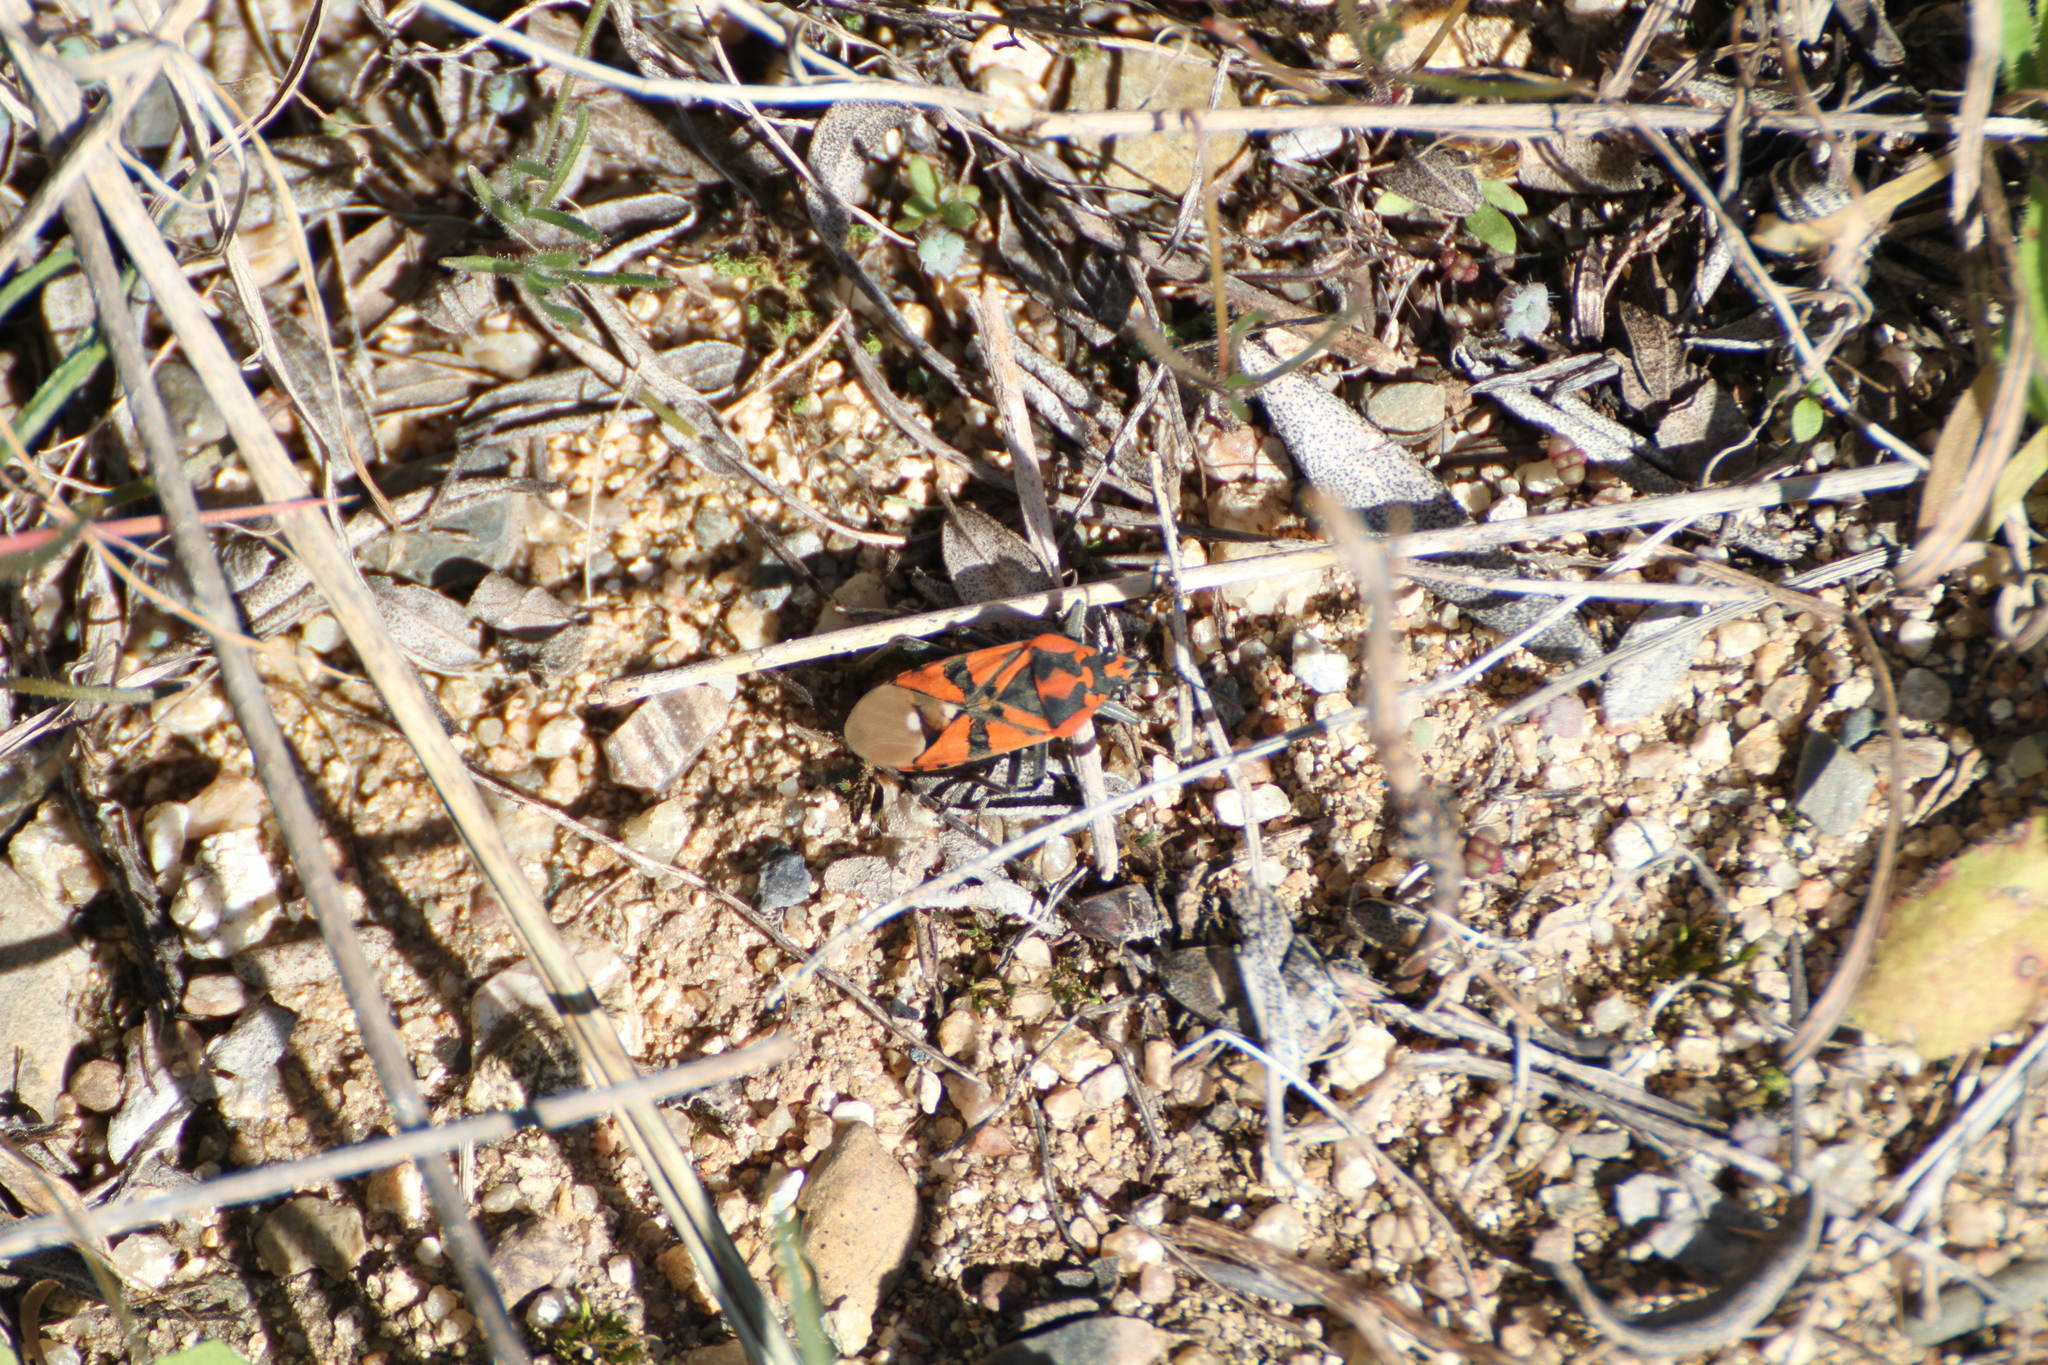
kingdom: Animalia
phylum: Arthropoda
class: Insecta
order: Hemiptera
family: Lygaeidae
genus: Spilostethus
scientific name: Spilostethus pandurus
